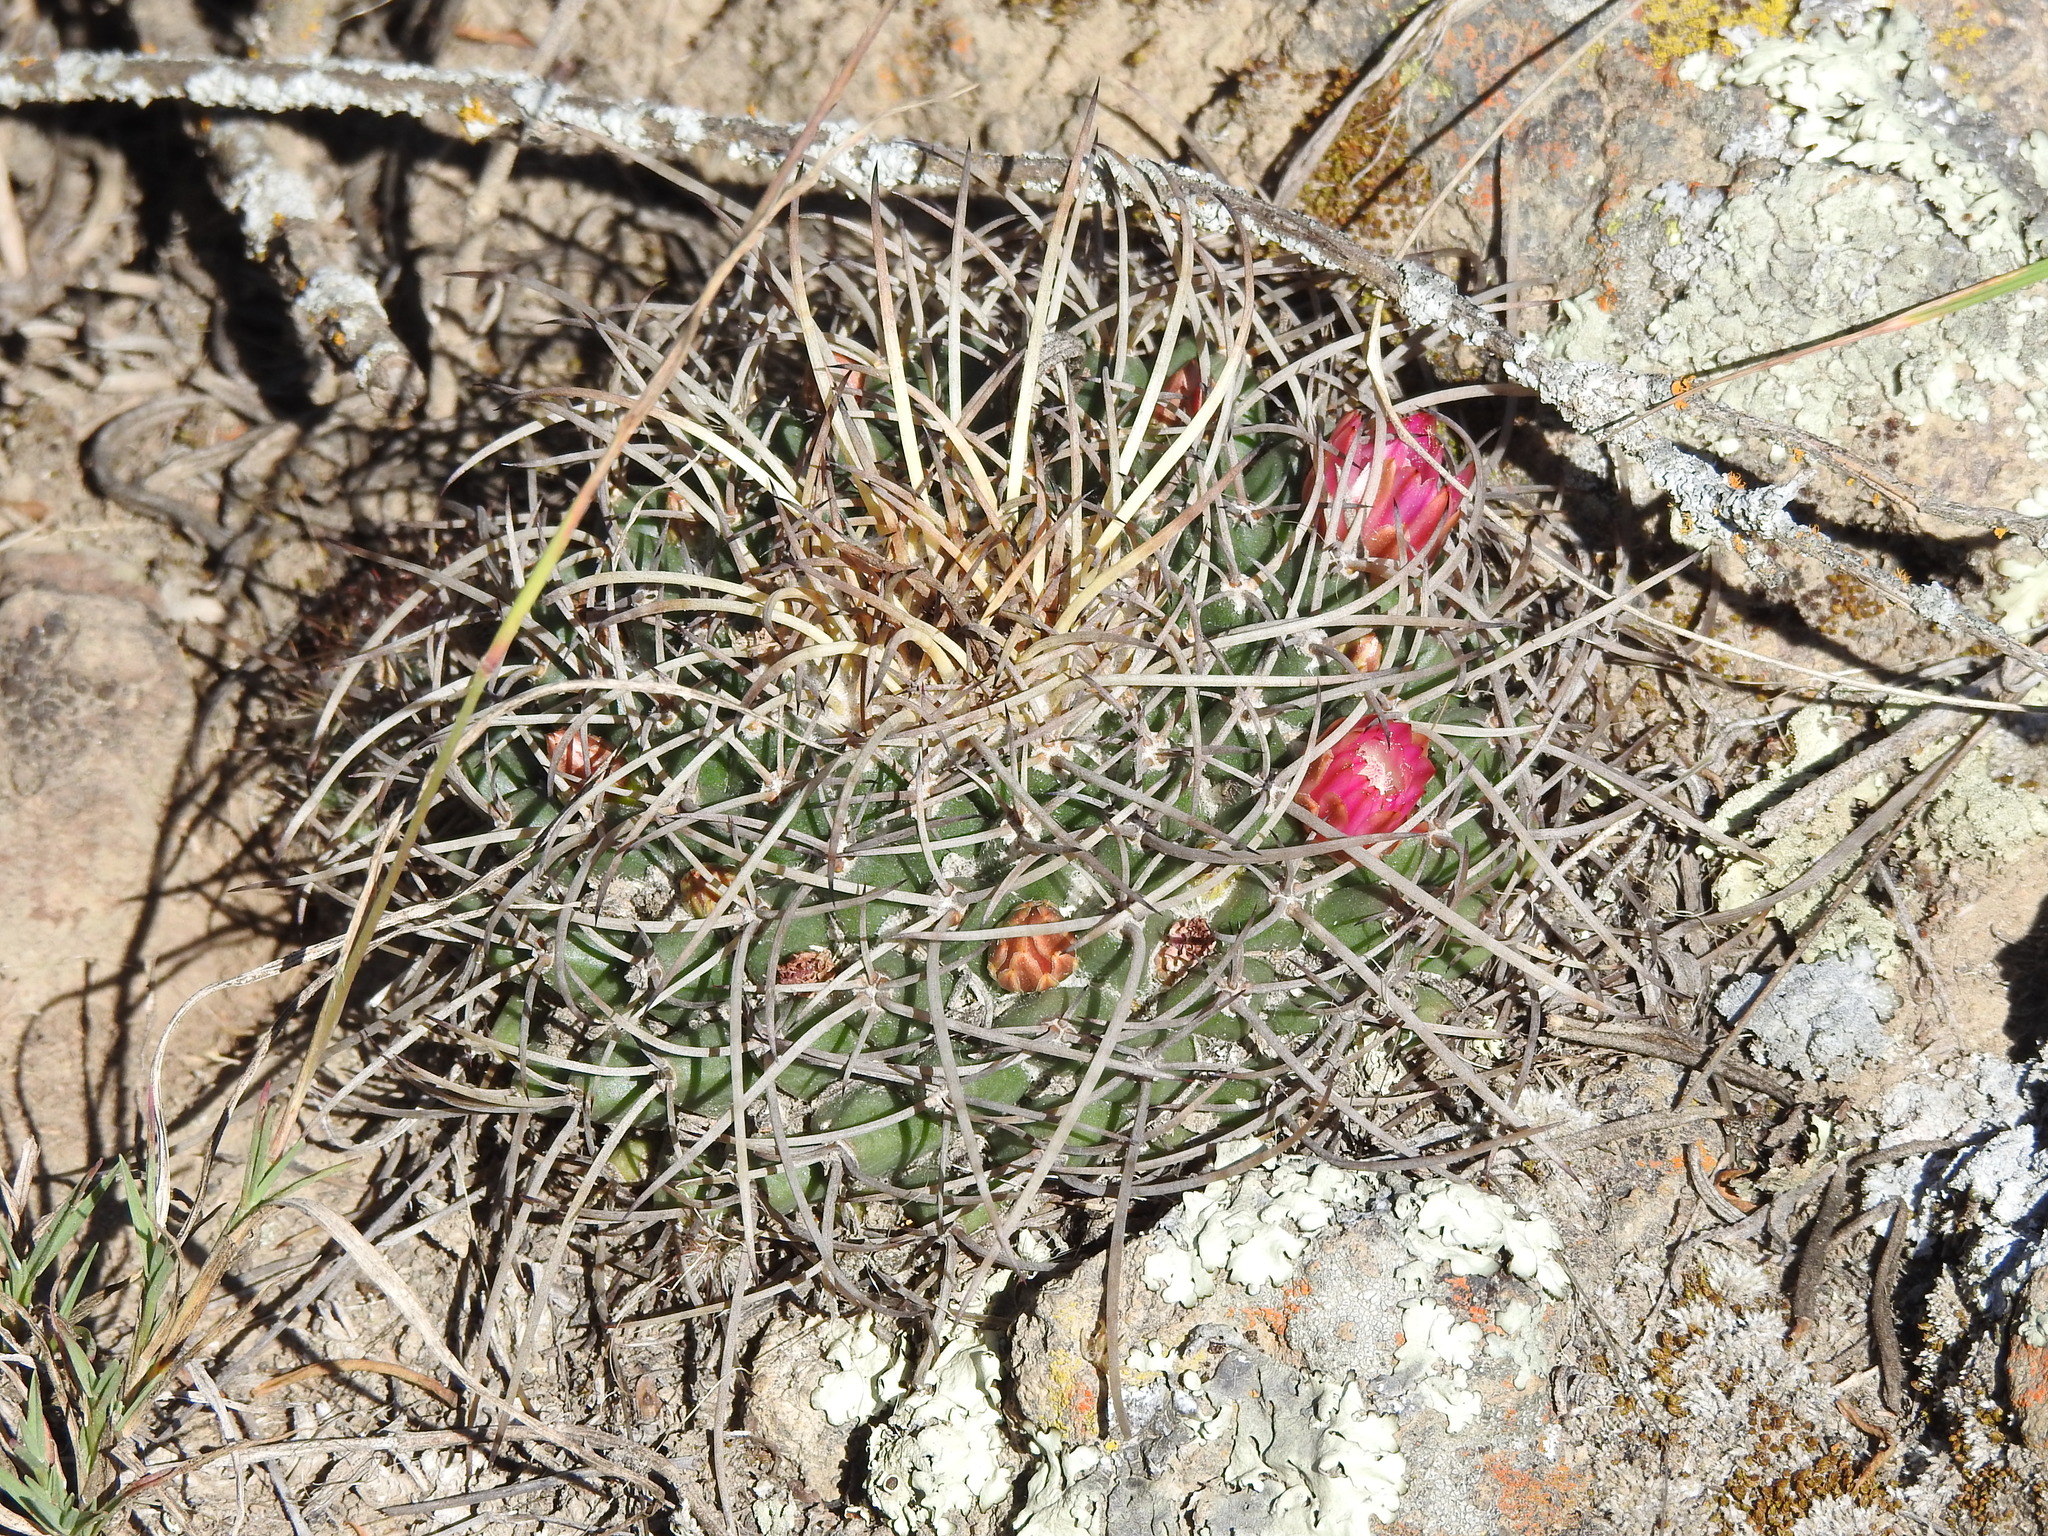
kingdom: Plantae
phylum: Tracheophyta
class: Magnoliopsida
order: Caryophyllales
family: Cactaceae
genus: Mammillaria
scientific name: Mammillaria magnimamma
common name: Mexican pincushion
